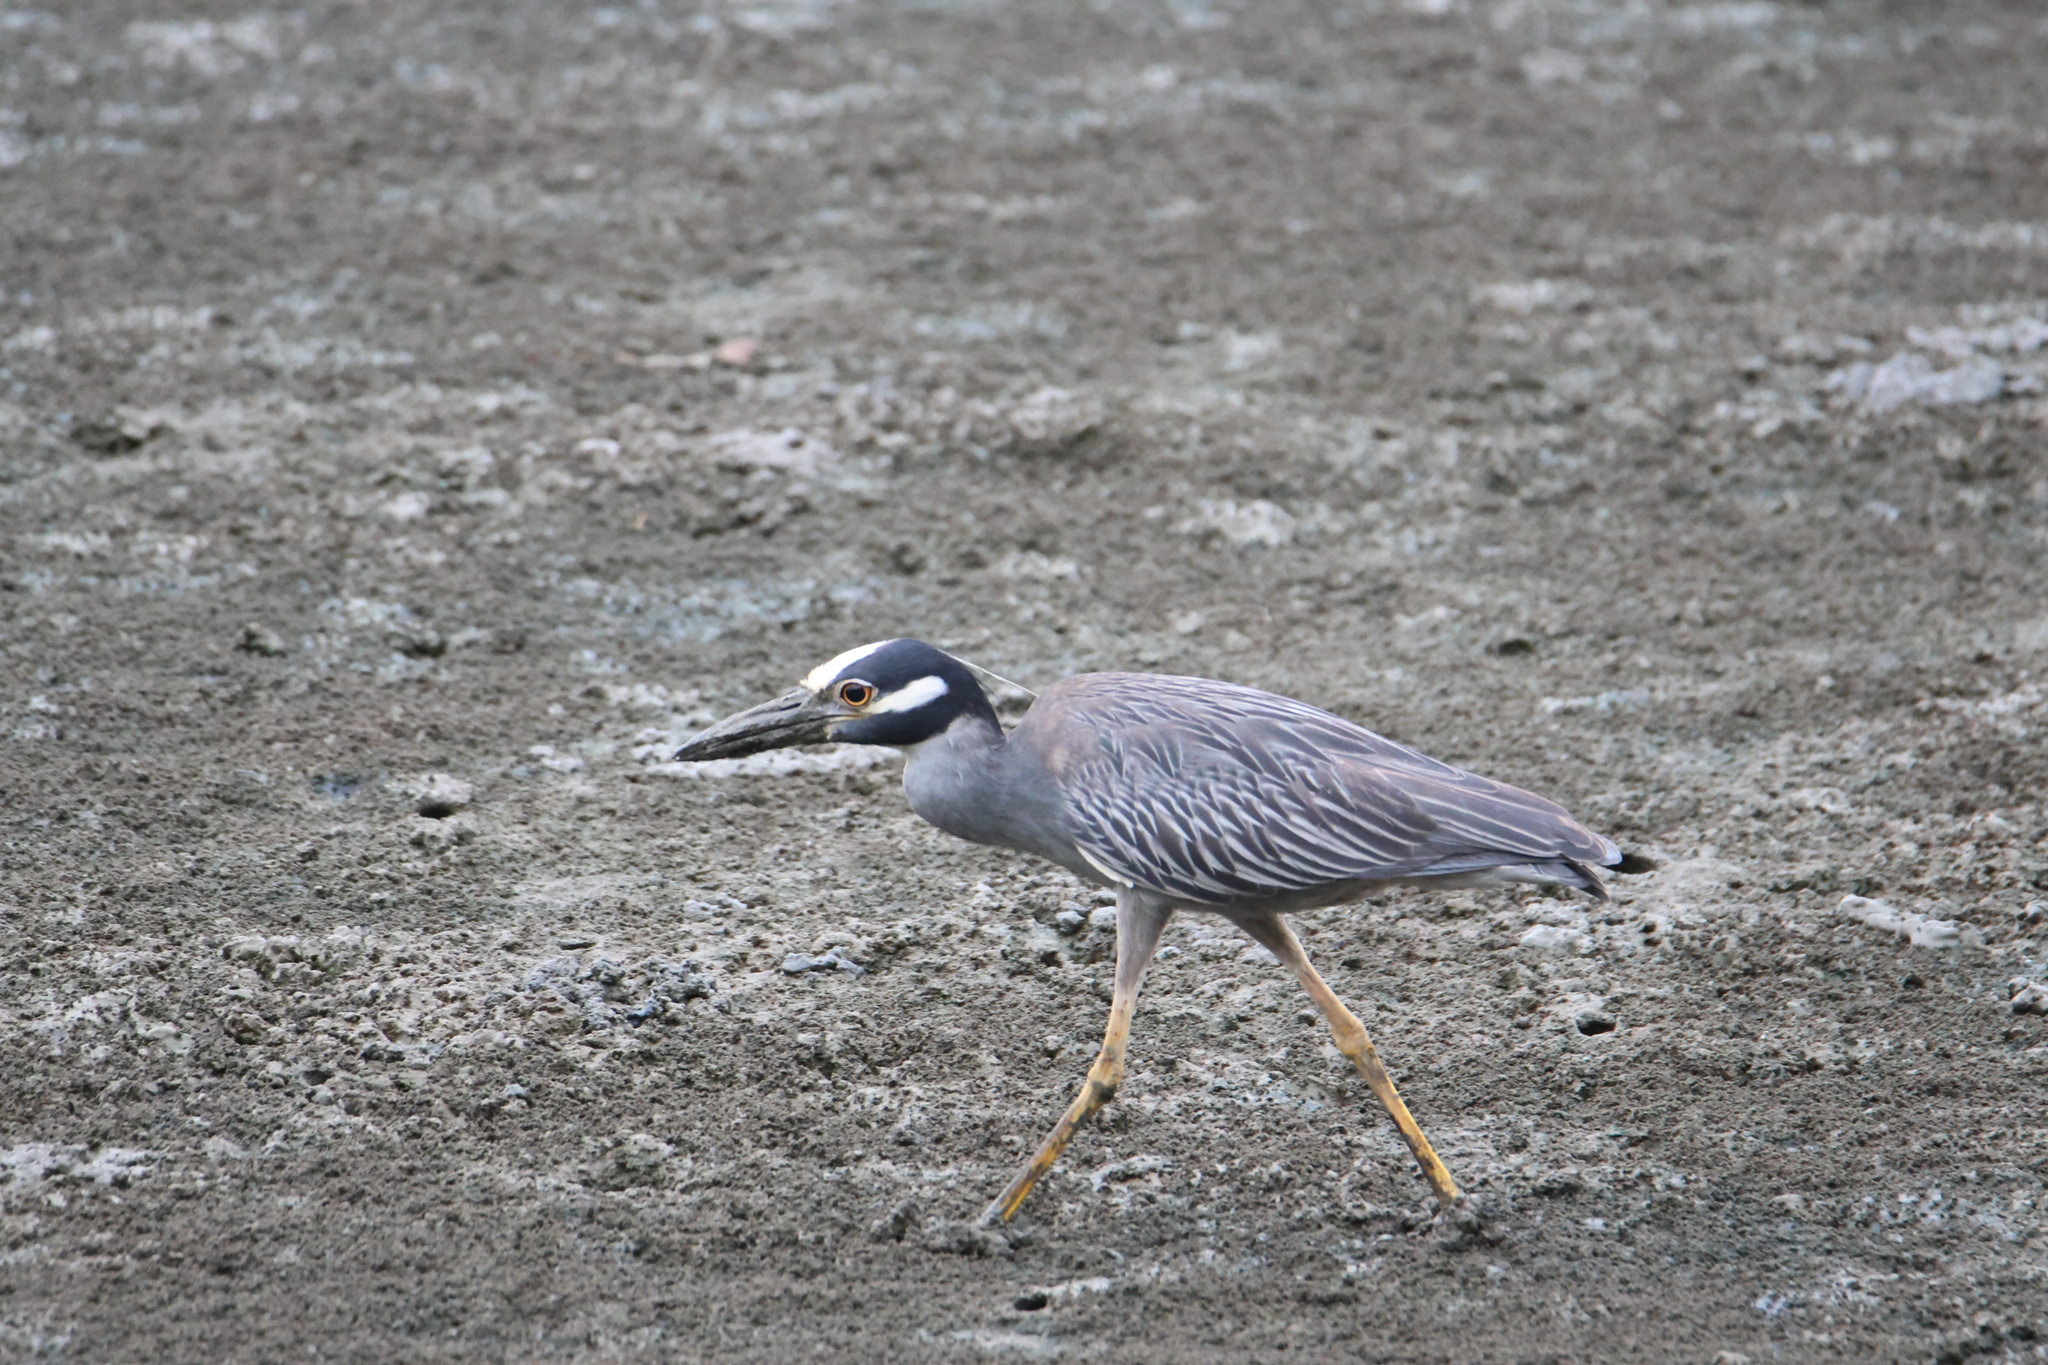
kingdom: Animalia
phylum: Chordata
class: Aves
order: Pelecaniformes
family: Ardeidae
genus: Nyctanassa
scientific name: Nyctanassa violacea
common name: Yellow-crowned night heron
